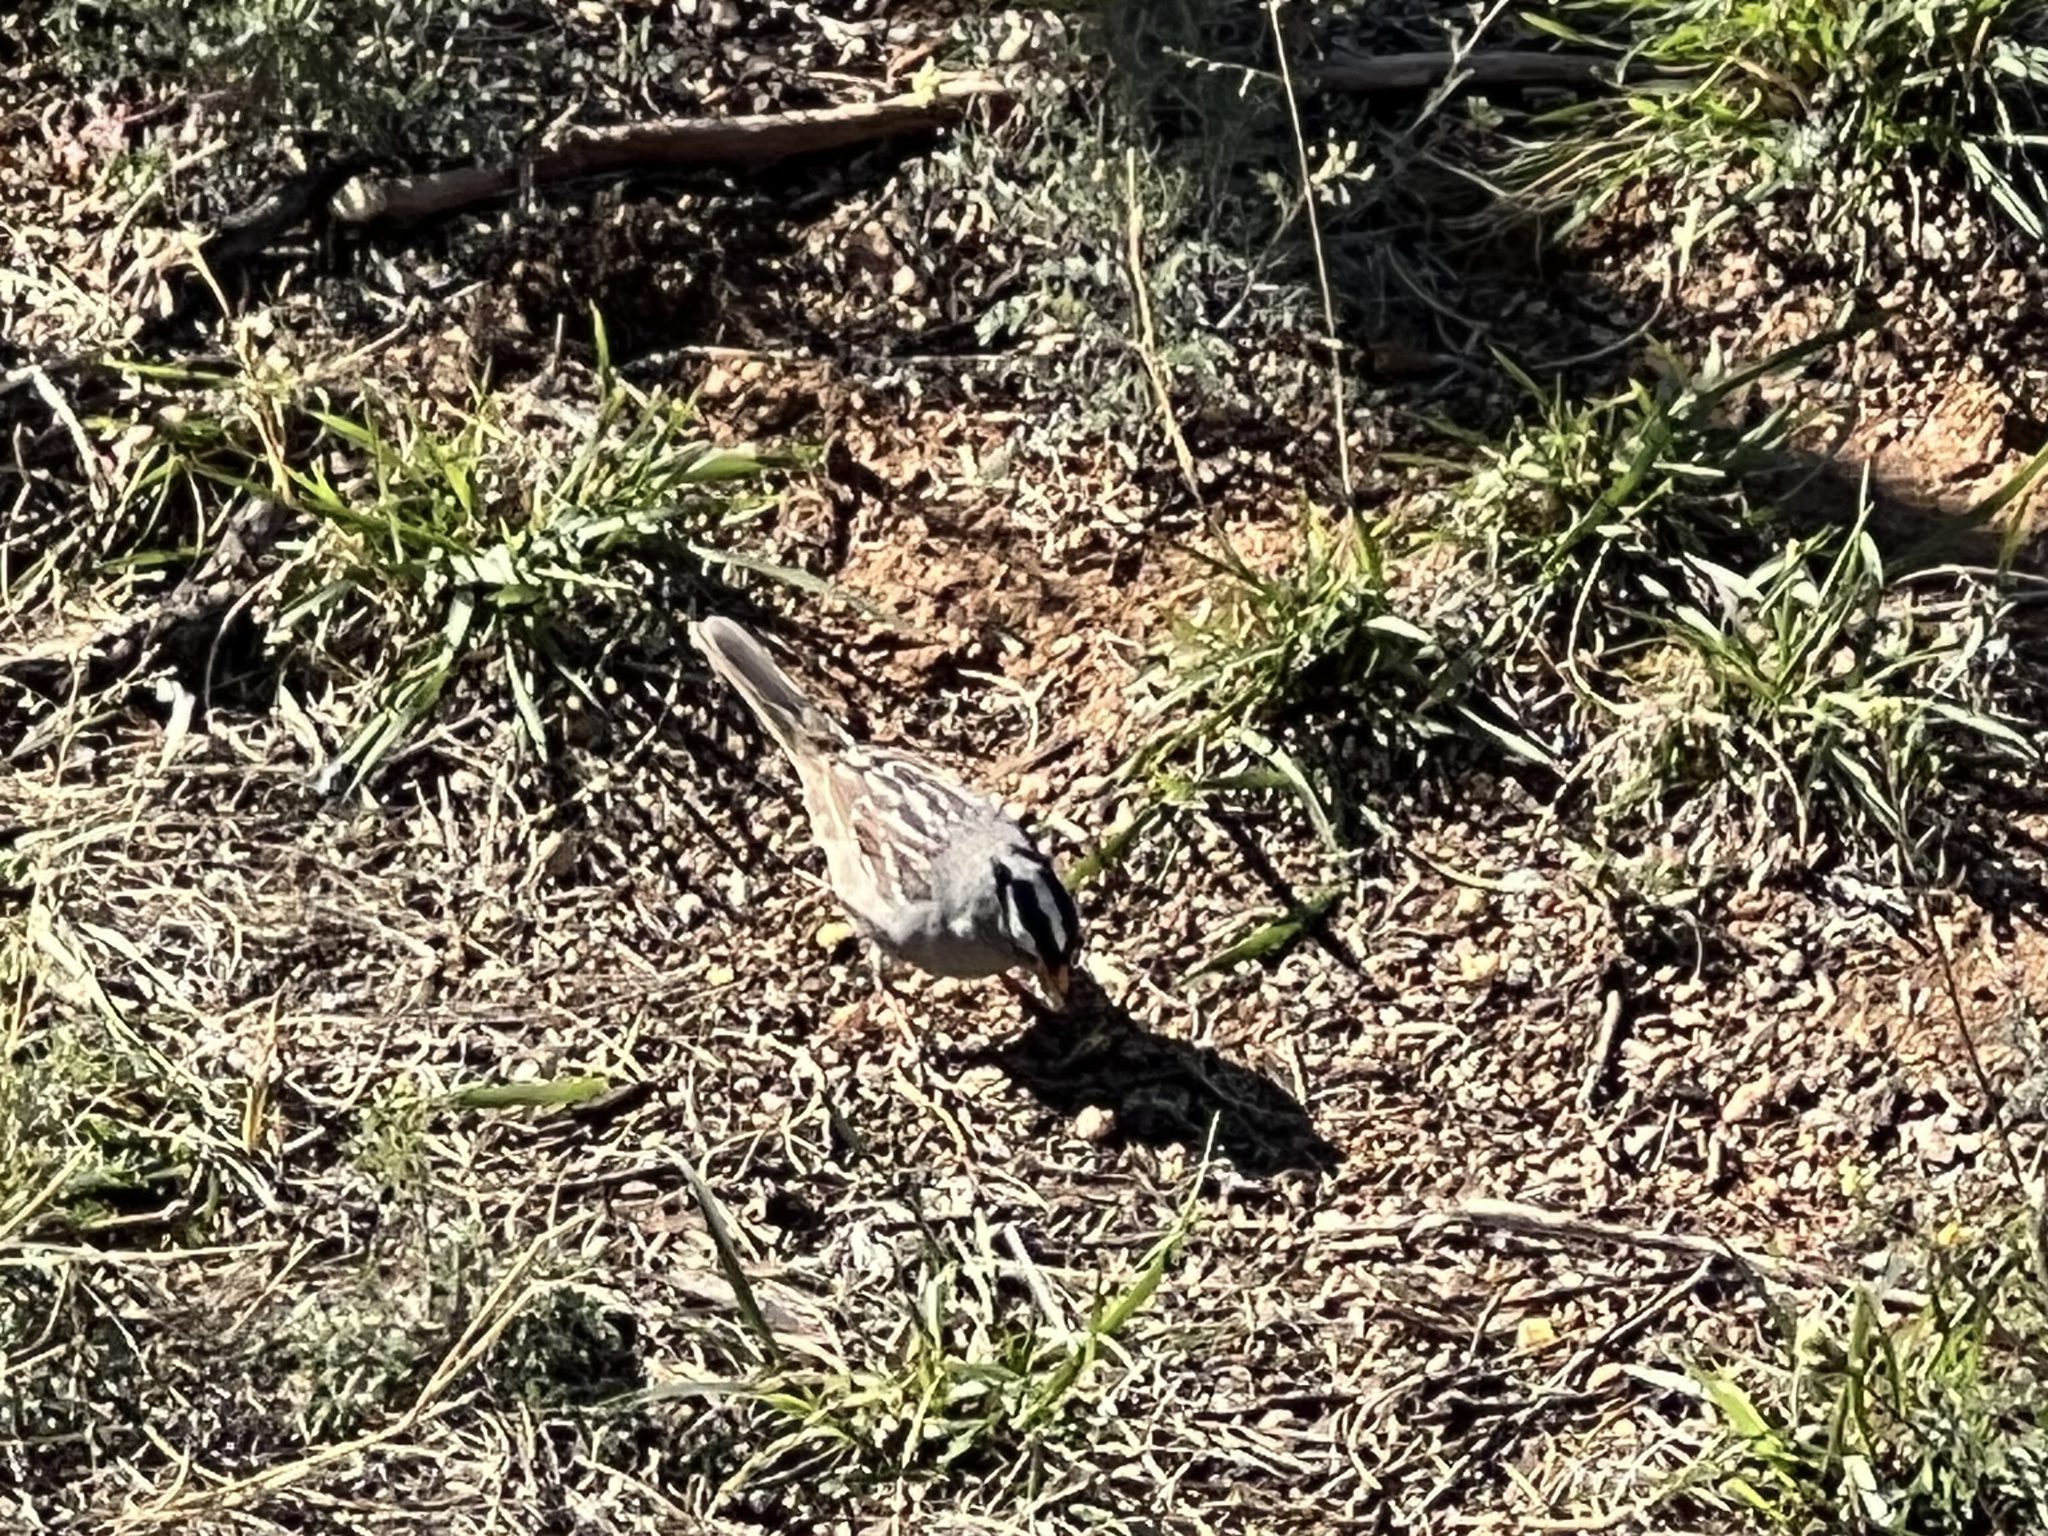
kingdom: Animalia
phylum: Chordata
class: Aves
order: Passeriformes
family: Passerellidae
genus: Zonotrichia
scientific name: Zonotrichia leucophrys
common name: White-crowned sparrow
